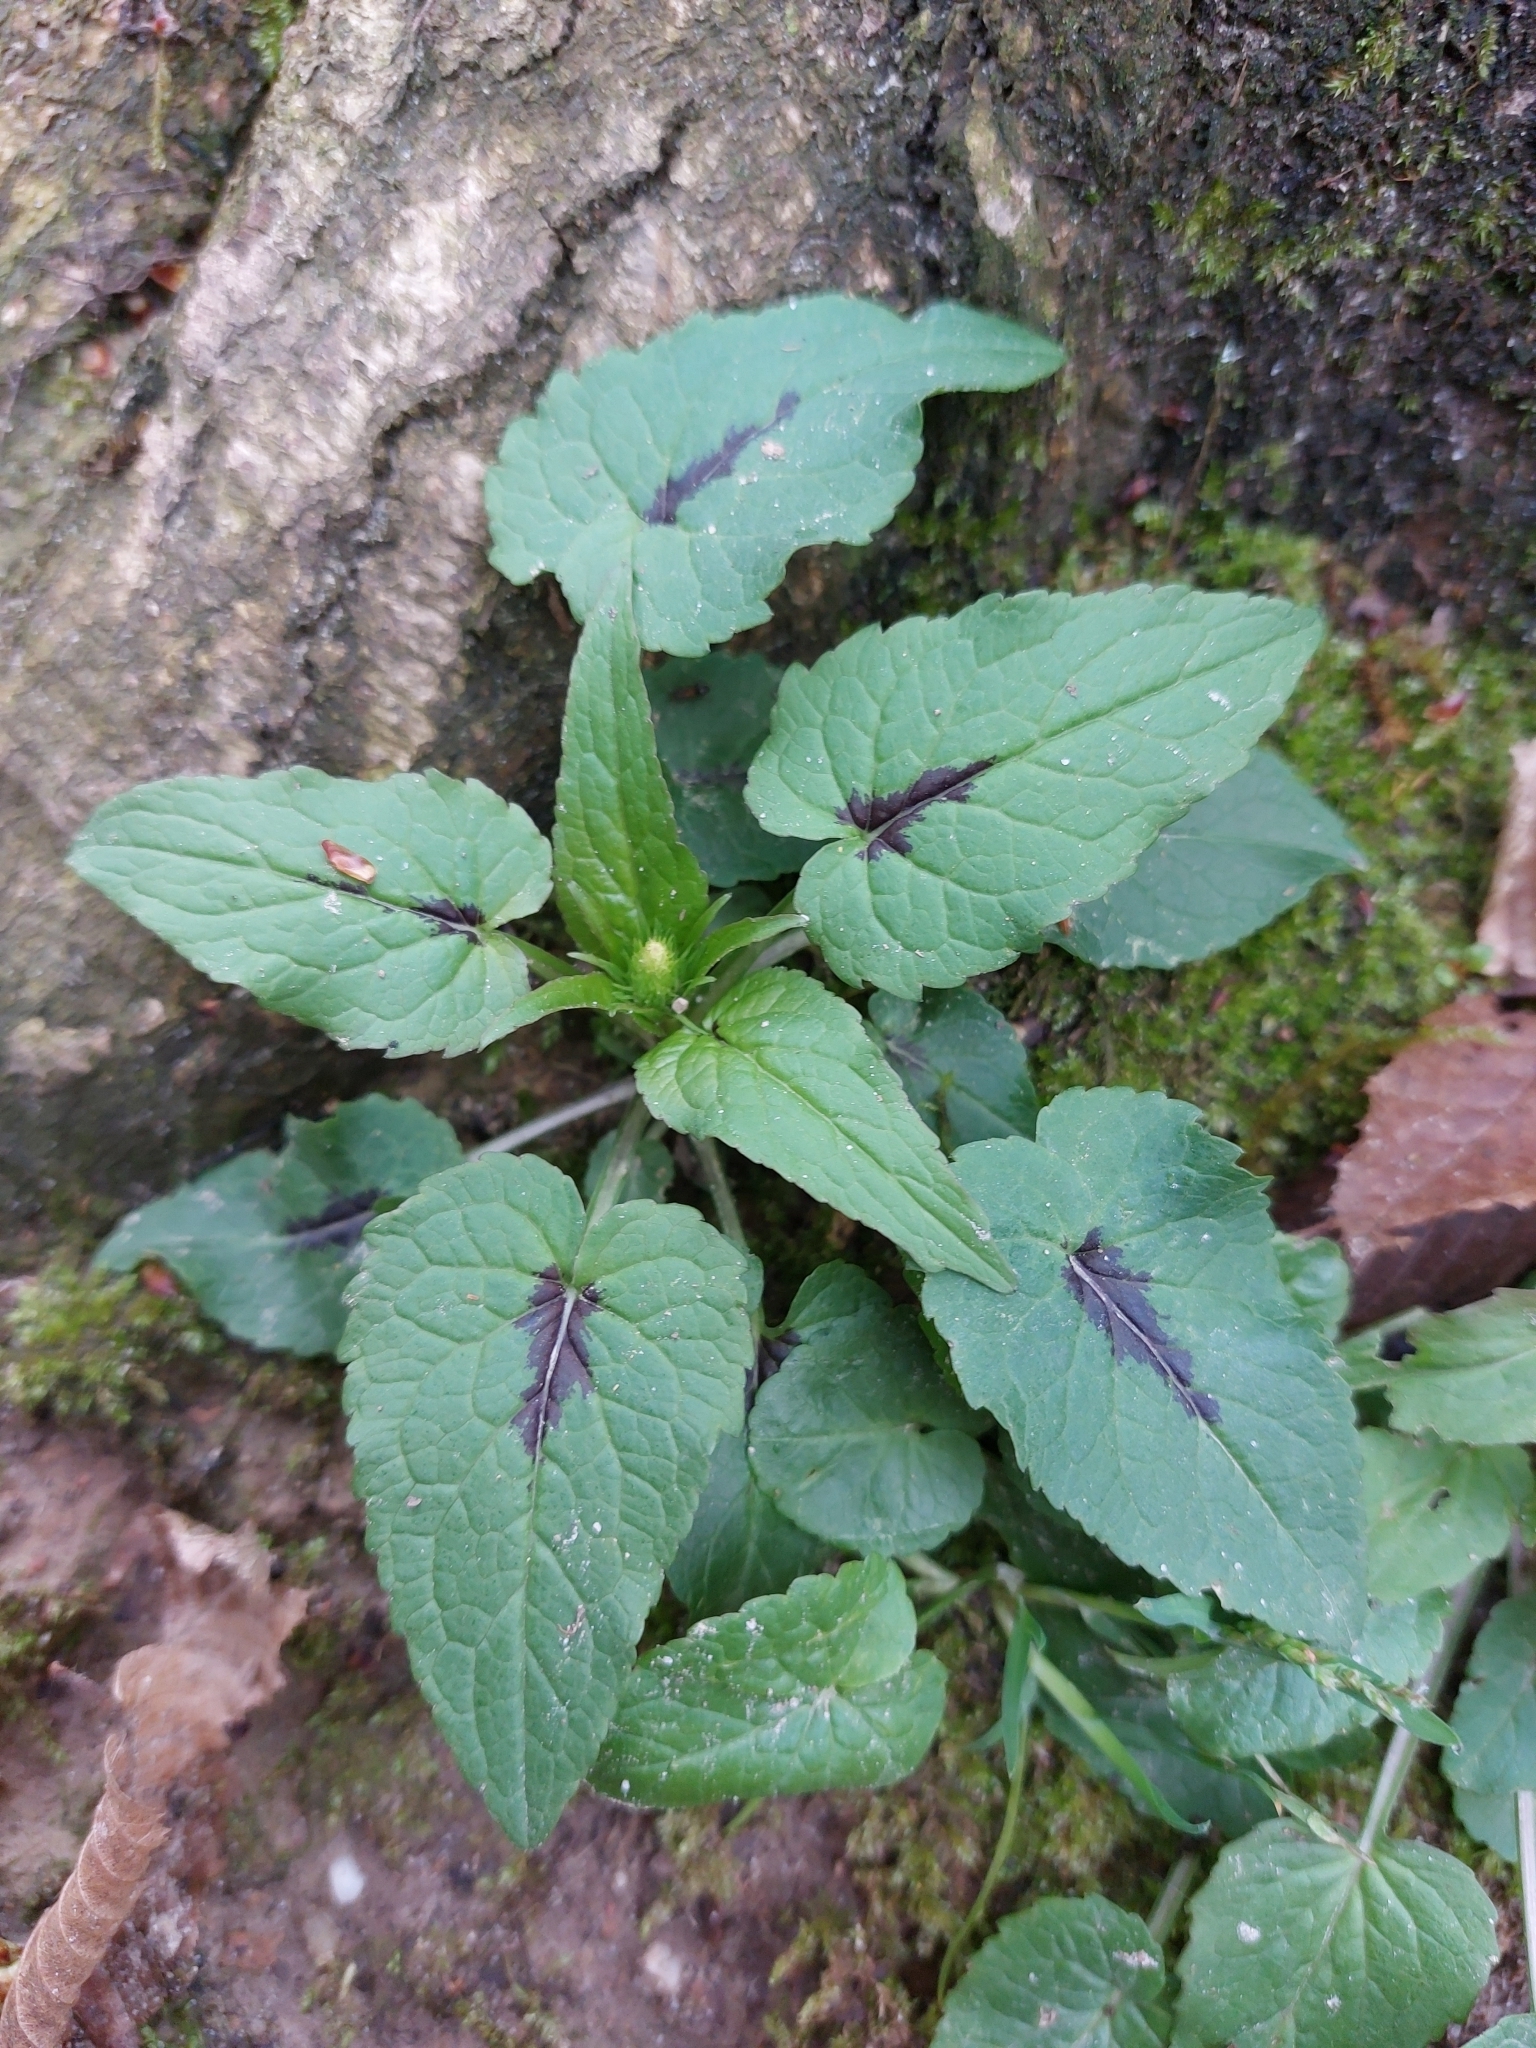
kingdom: Plantae
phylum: Tracheophyta
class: Magnoliopsida
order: Asterales
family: Campanulaceae
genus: Phyteuma
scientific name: Phyteuma spicatum
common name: Spiked rampion
